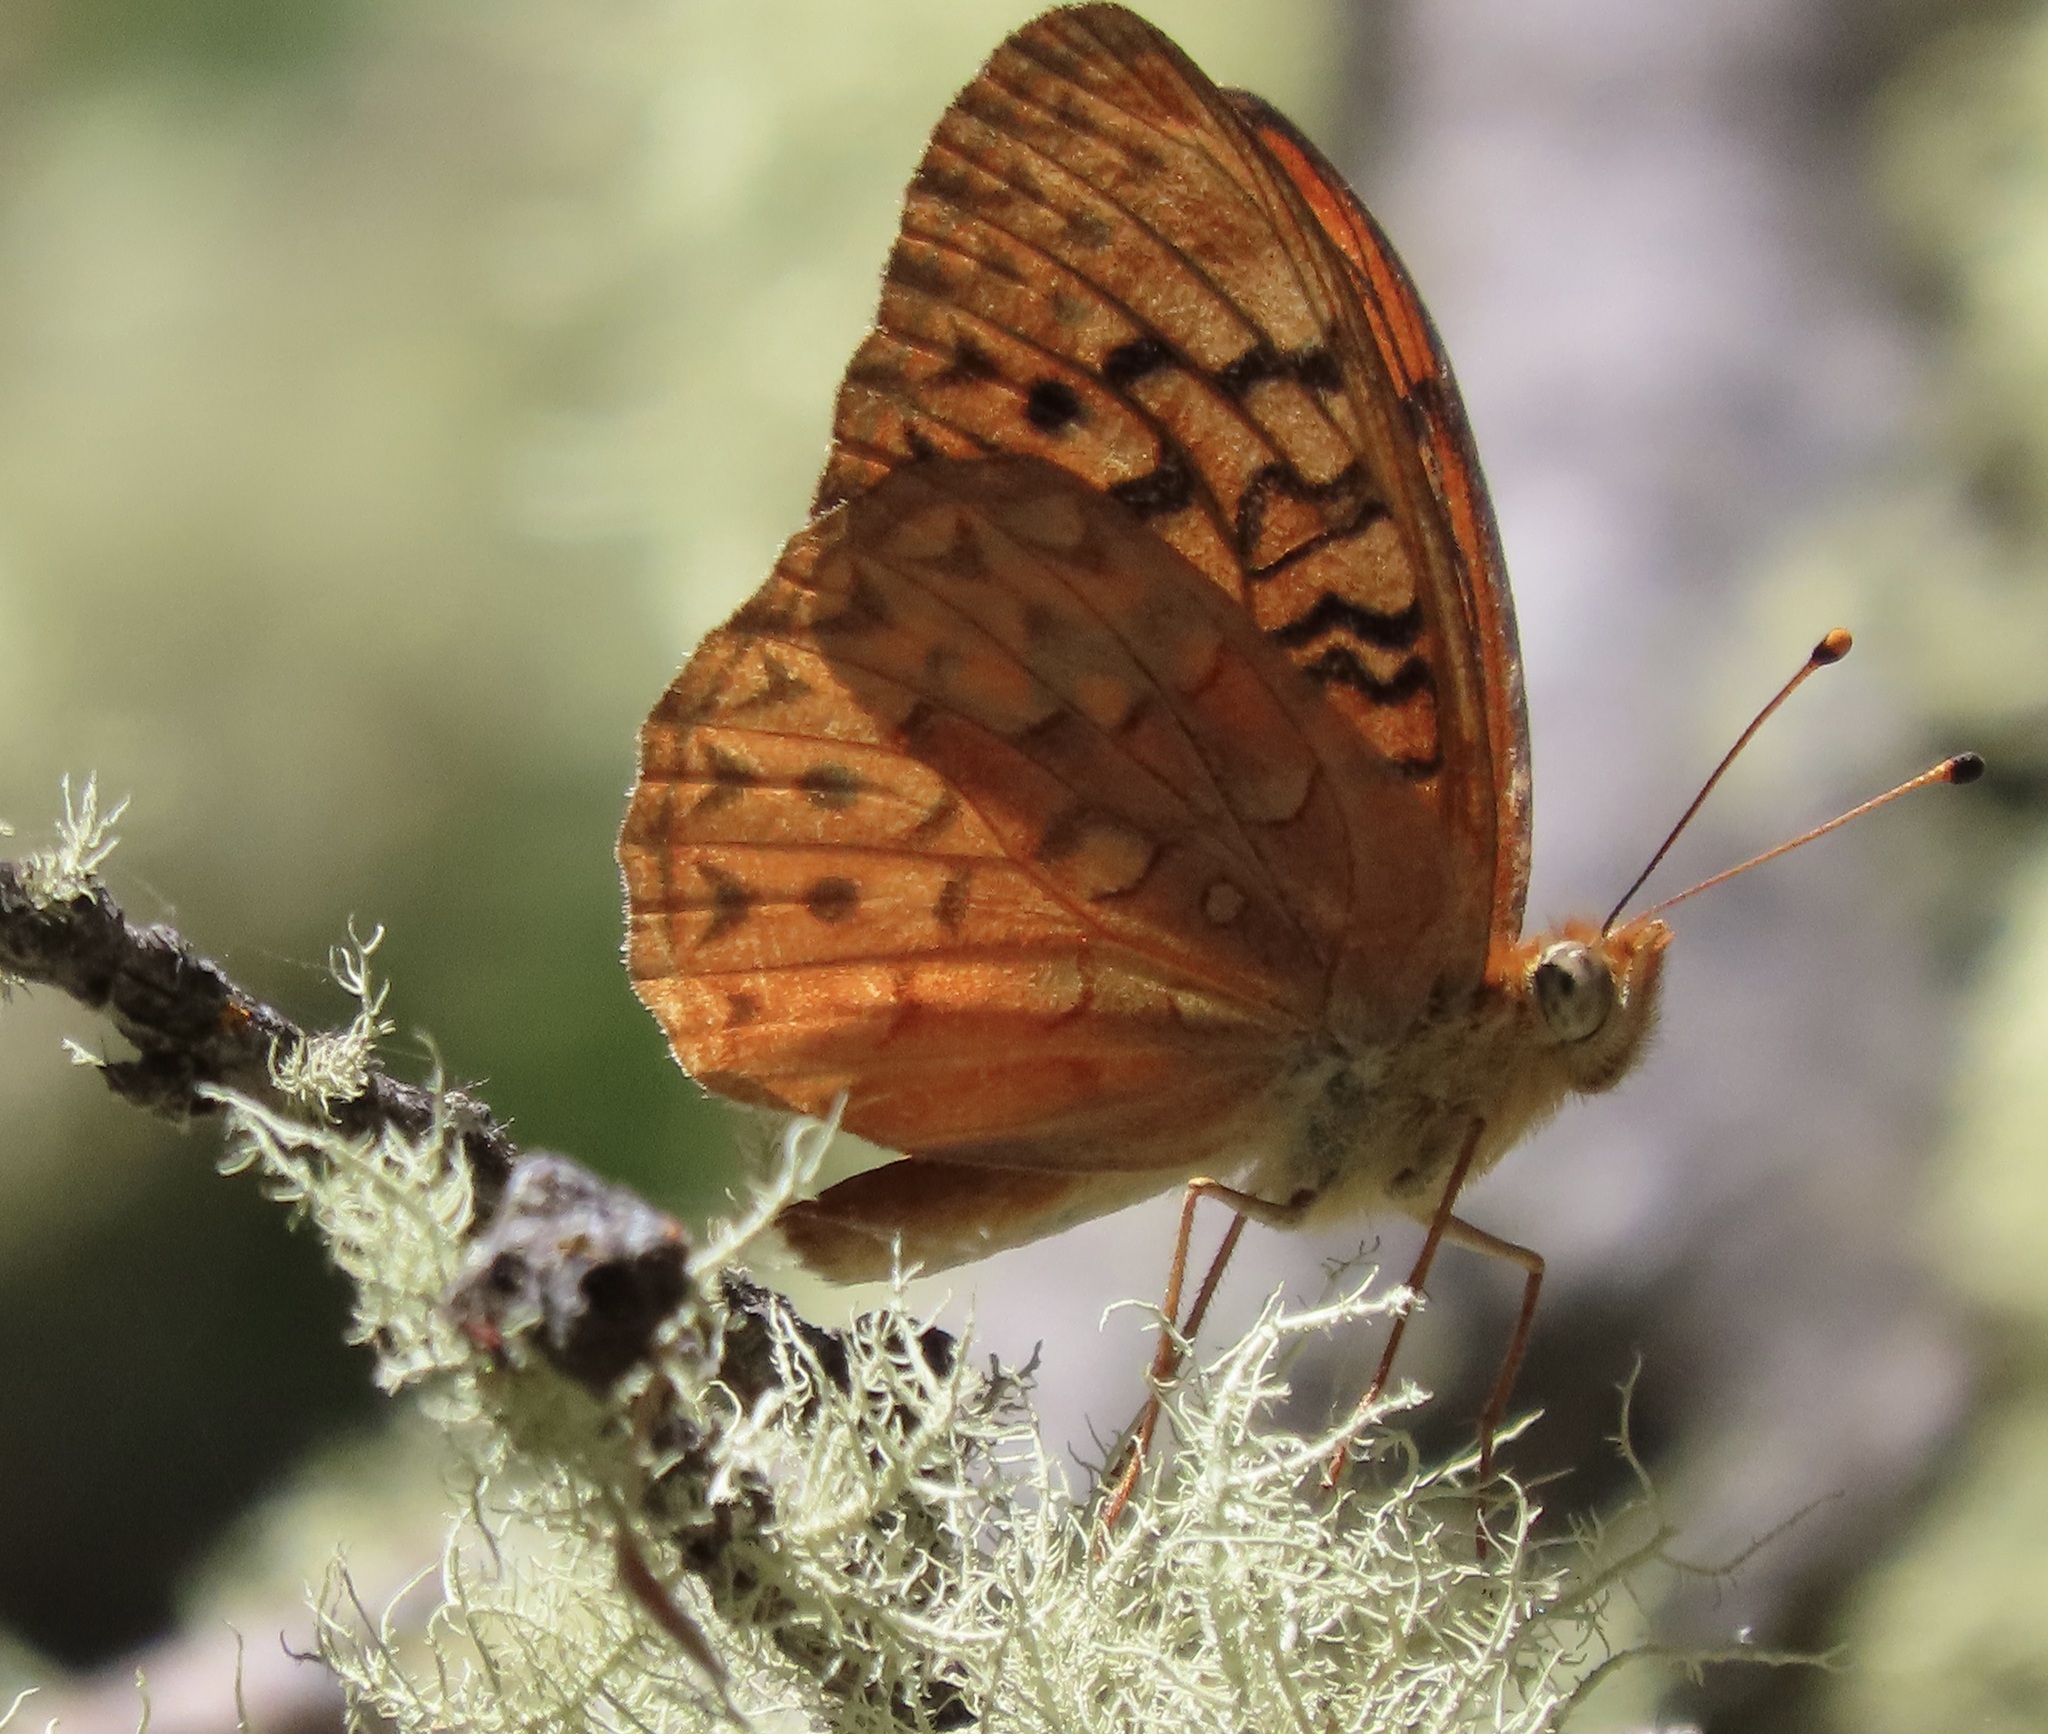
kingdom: Animalia
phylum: Arthropoda
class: Insecta
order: Lepidoptera
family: Nymphalidae
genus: Speyeria
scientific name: Speyeria adiaste
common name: Unsilvered fritillary
